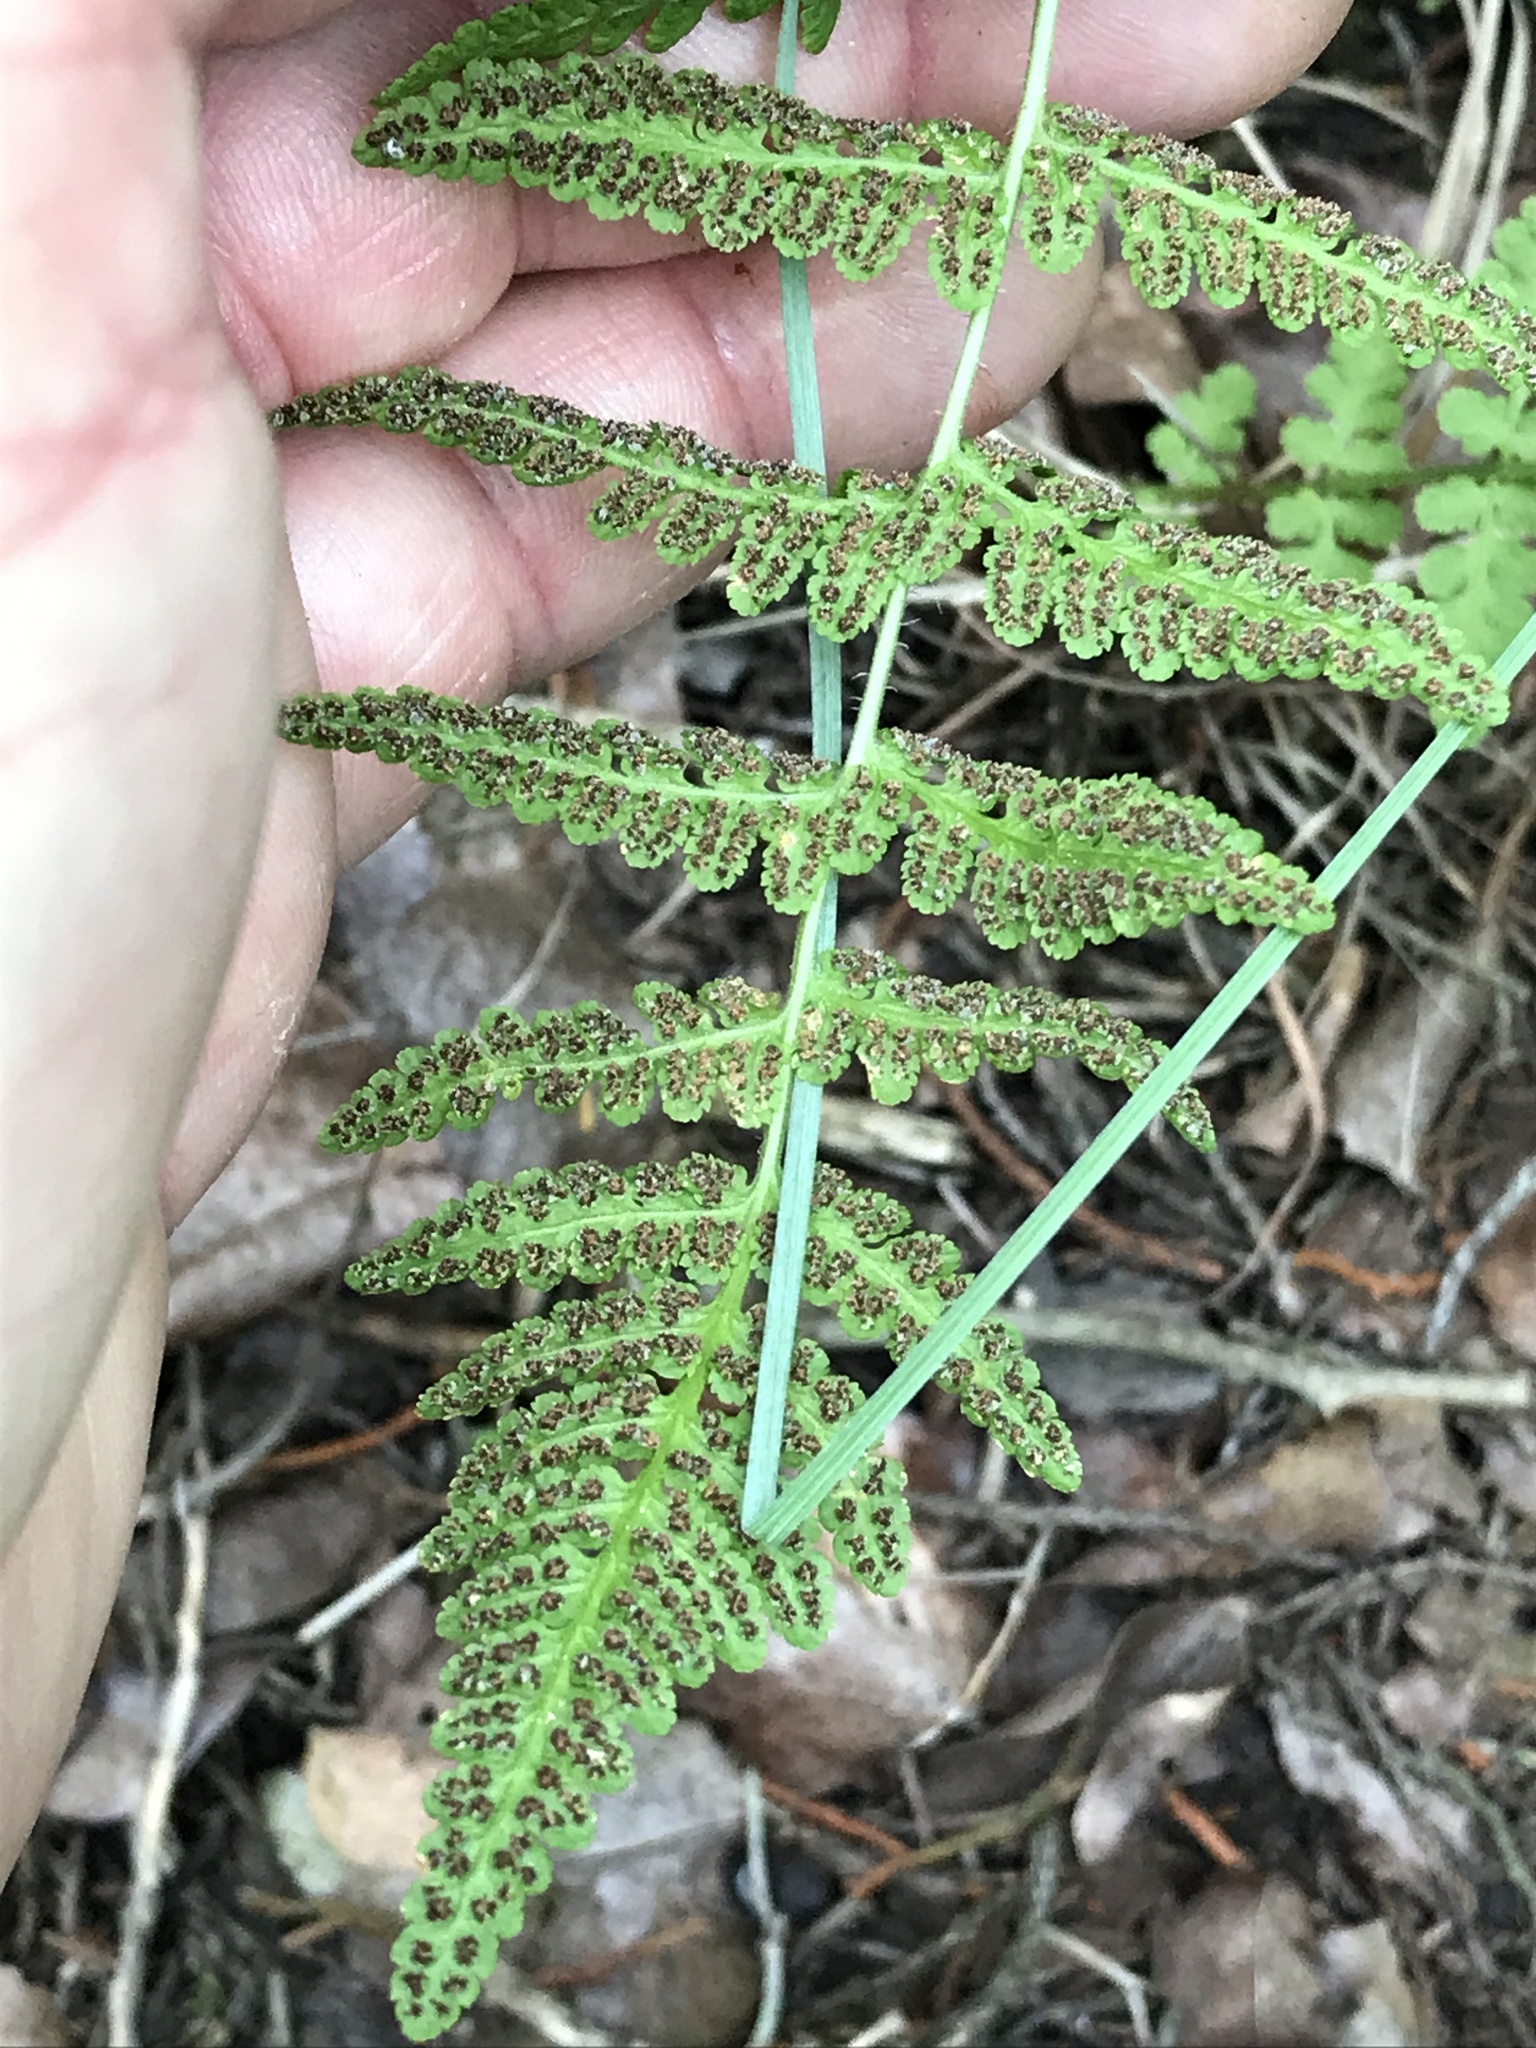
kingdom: Plantae
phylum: Tracheophyta
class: Polypodiopsida
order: Polypodiales
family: Woodsiaceae
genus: Physematium
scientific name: Physematium obtusum
